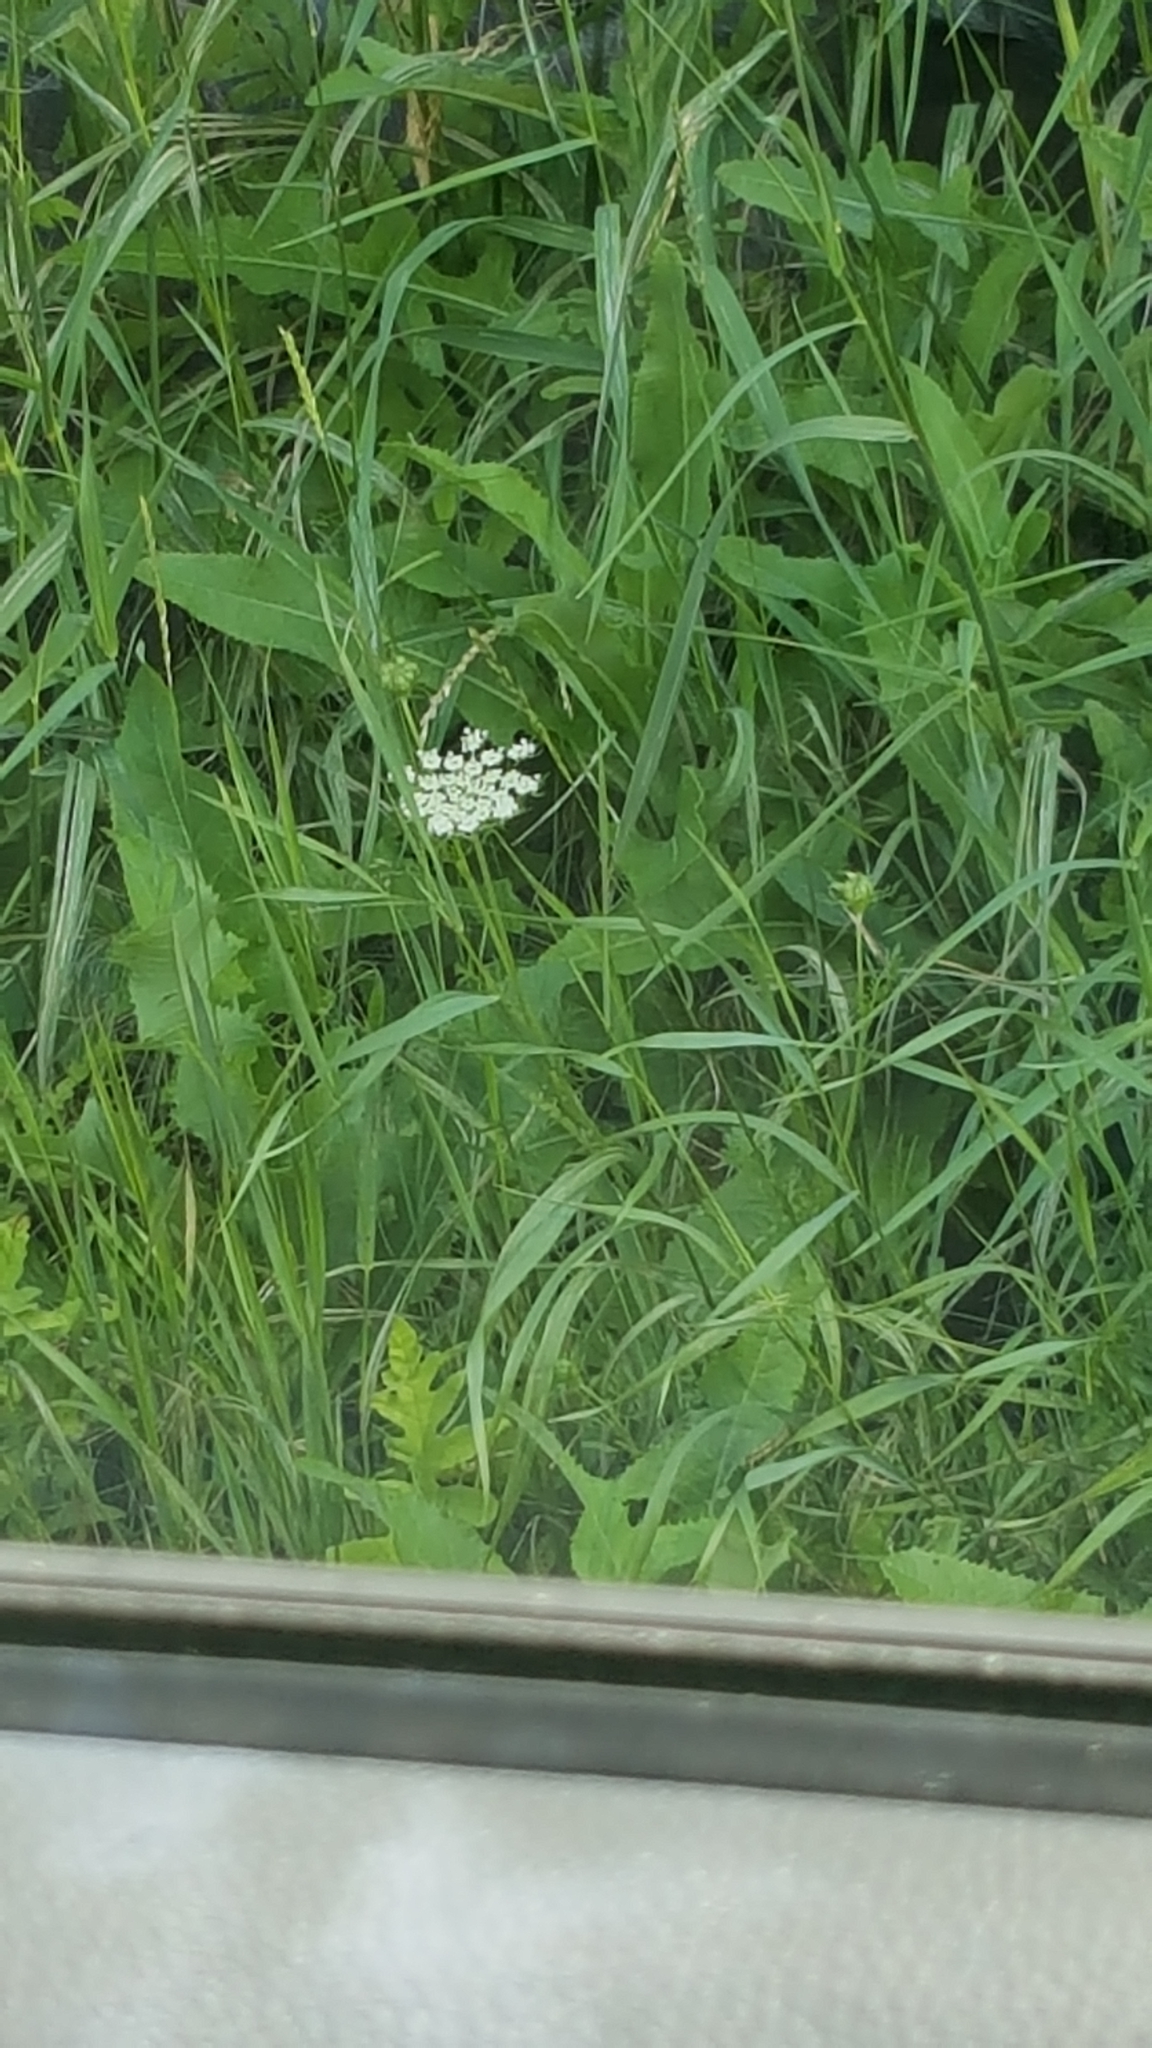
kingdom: Plantae
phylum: Tracheophyta
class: Magnoliopsida
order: Apiales
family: Apiaceae
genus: Daucus
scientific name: Daucus carota
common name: Wild carrot
